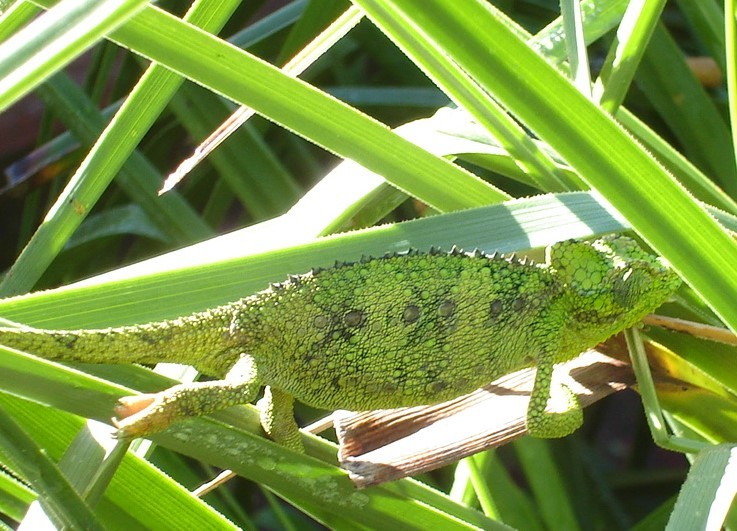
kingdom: Animalia
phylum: Chordata
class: Squamata
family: Chamaeleonidae
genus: Trioceros
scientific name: Trioceros hoehnelii
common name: High-casqued chameleon
